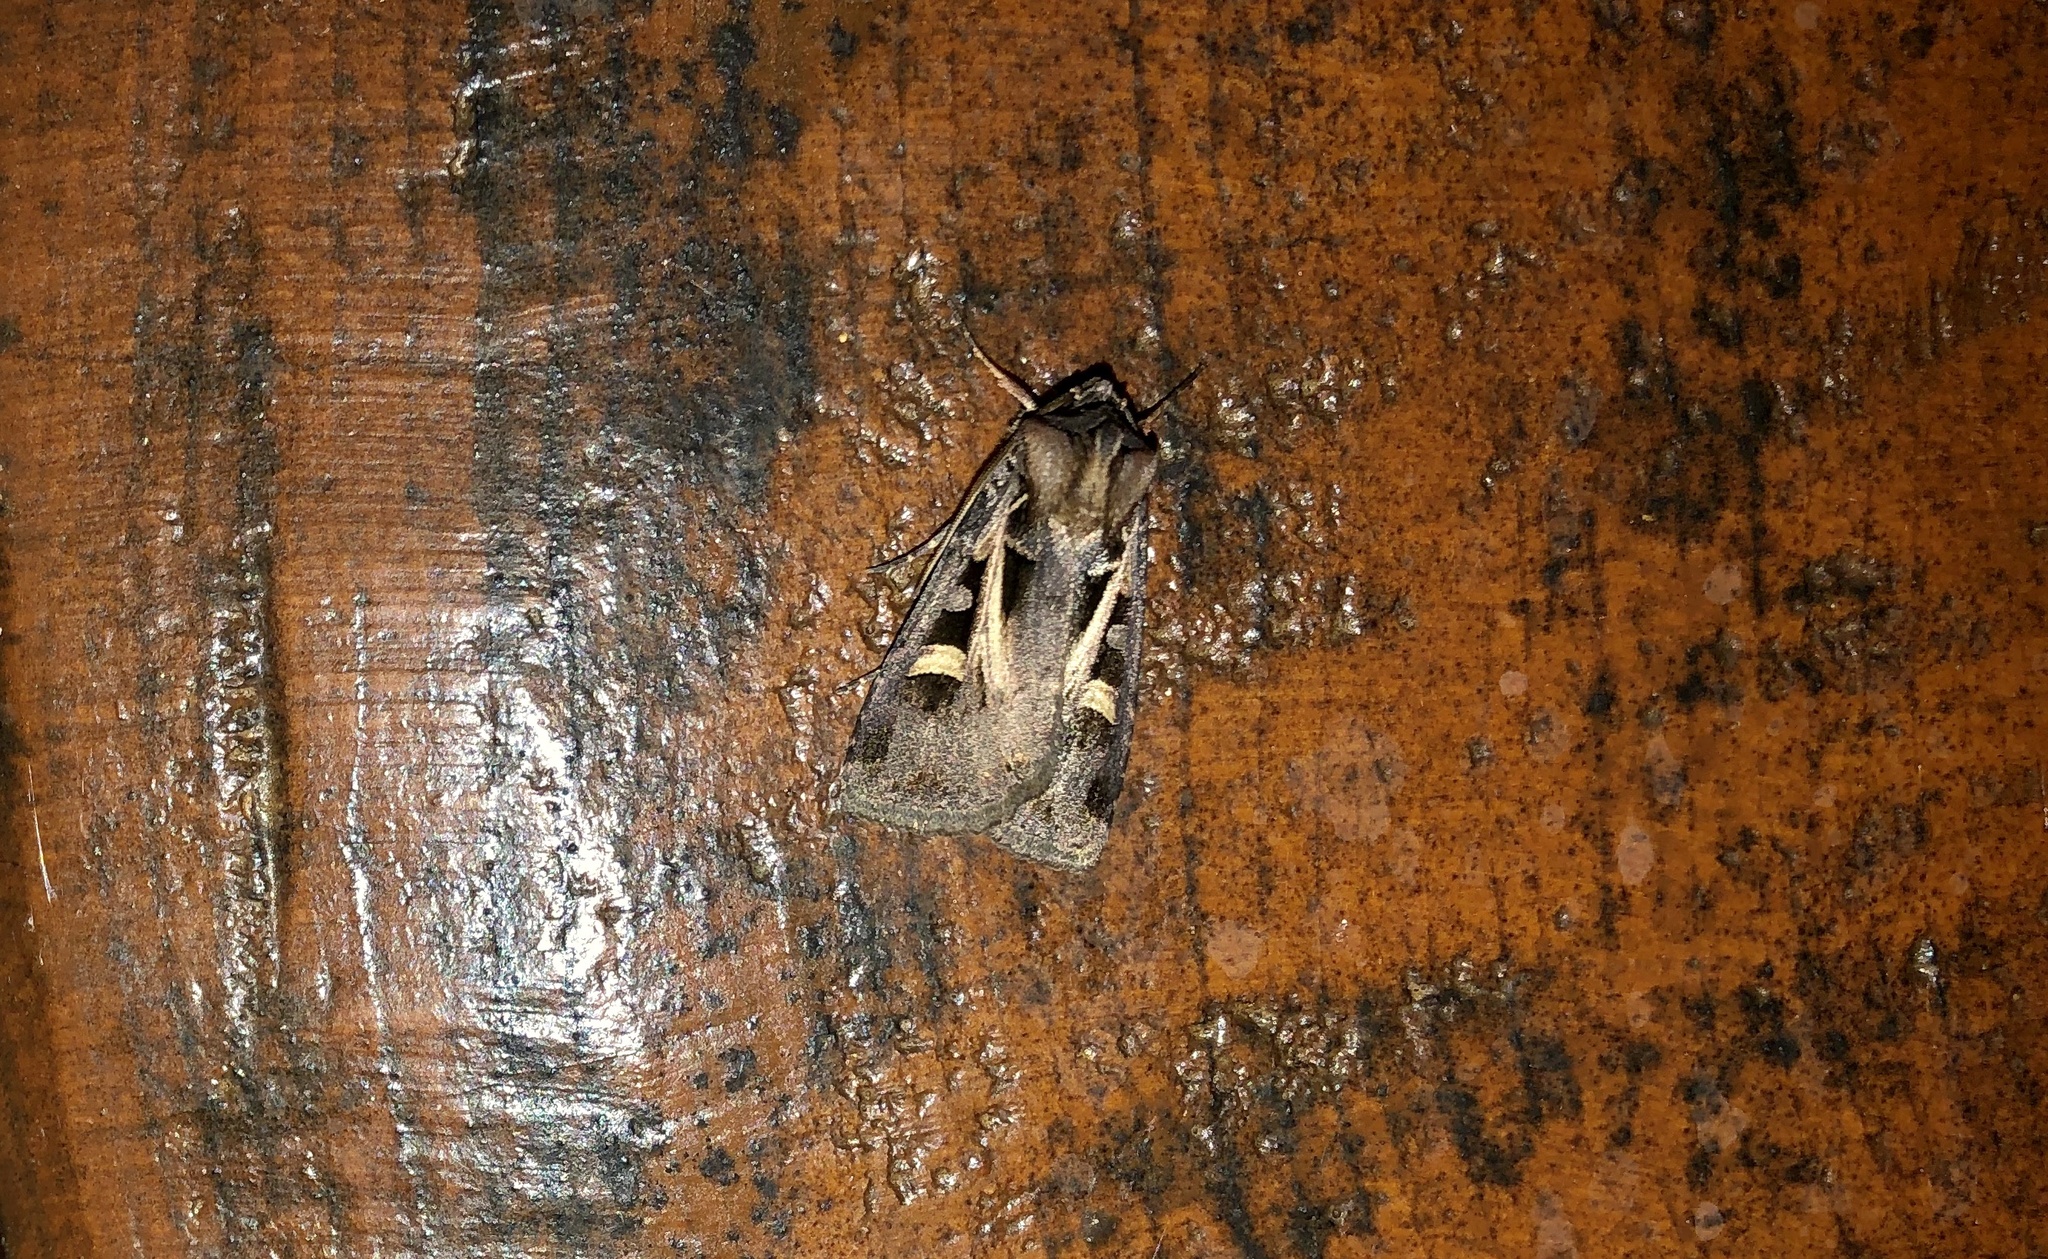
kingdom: Animalia
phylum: Arthropoda
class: Insecta
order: Lepidoptera
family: Noctuidae
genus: Feltia
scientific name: Feltia herilis
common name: Master's dart
